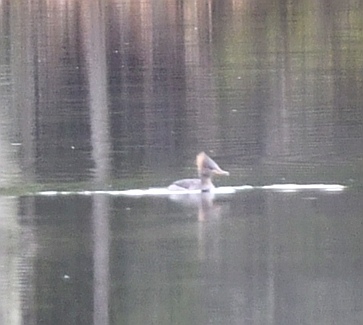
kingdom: Animalia
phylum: Chordata
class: Aves
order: Anseriformes
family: Anatidae
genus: Lophodytes
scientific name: Lophodytes cucullatus
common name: Hooded merganser
